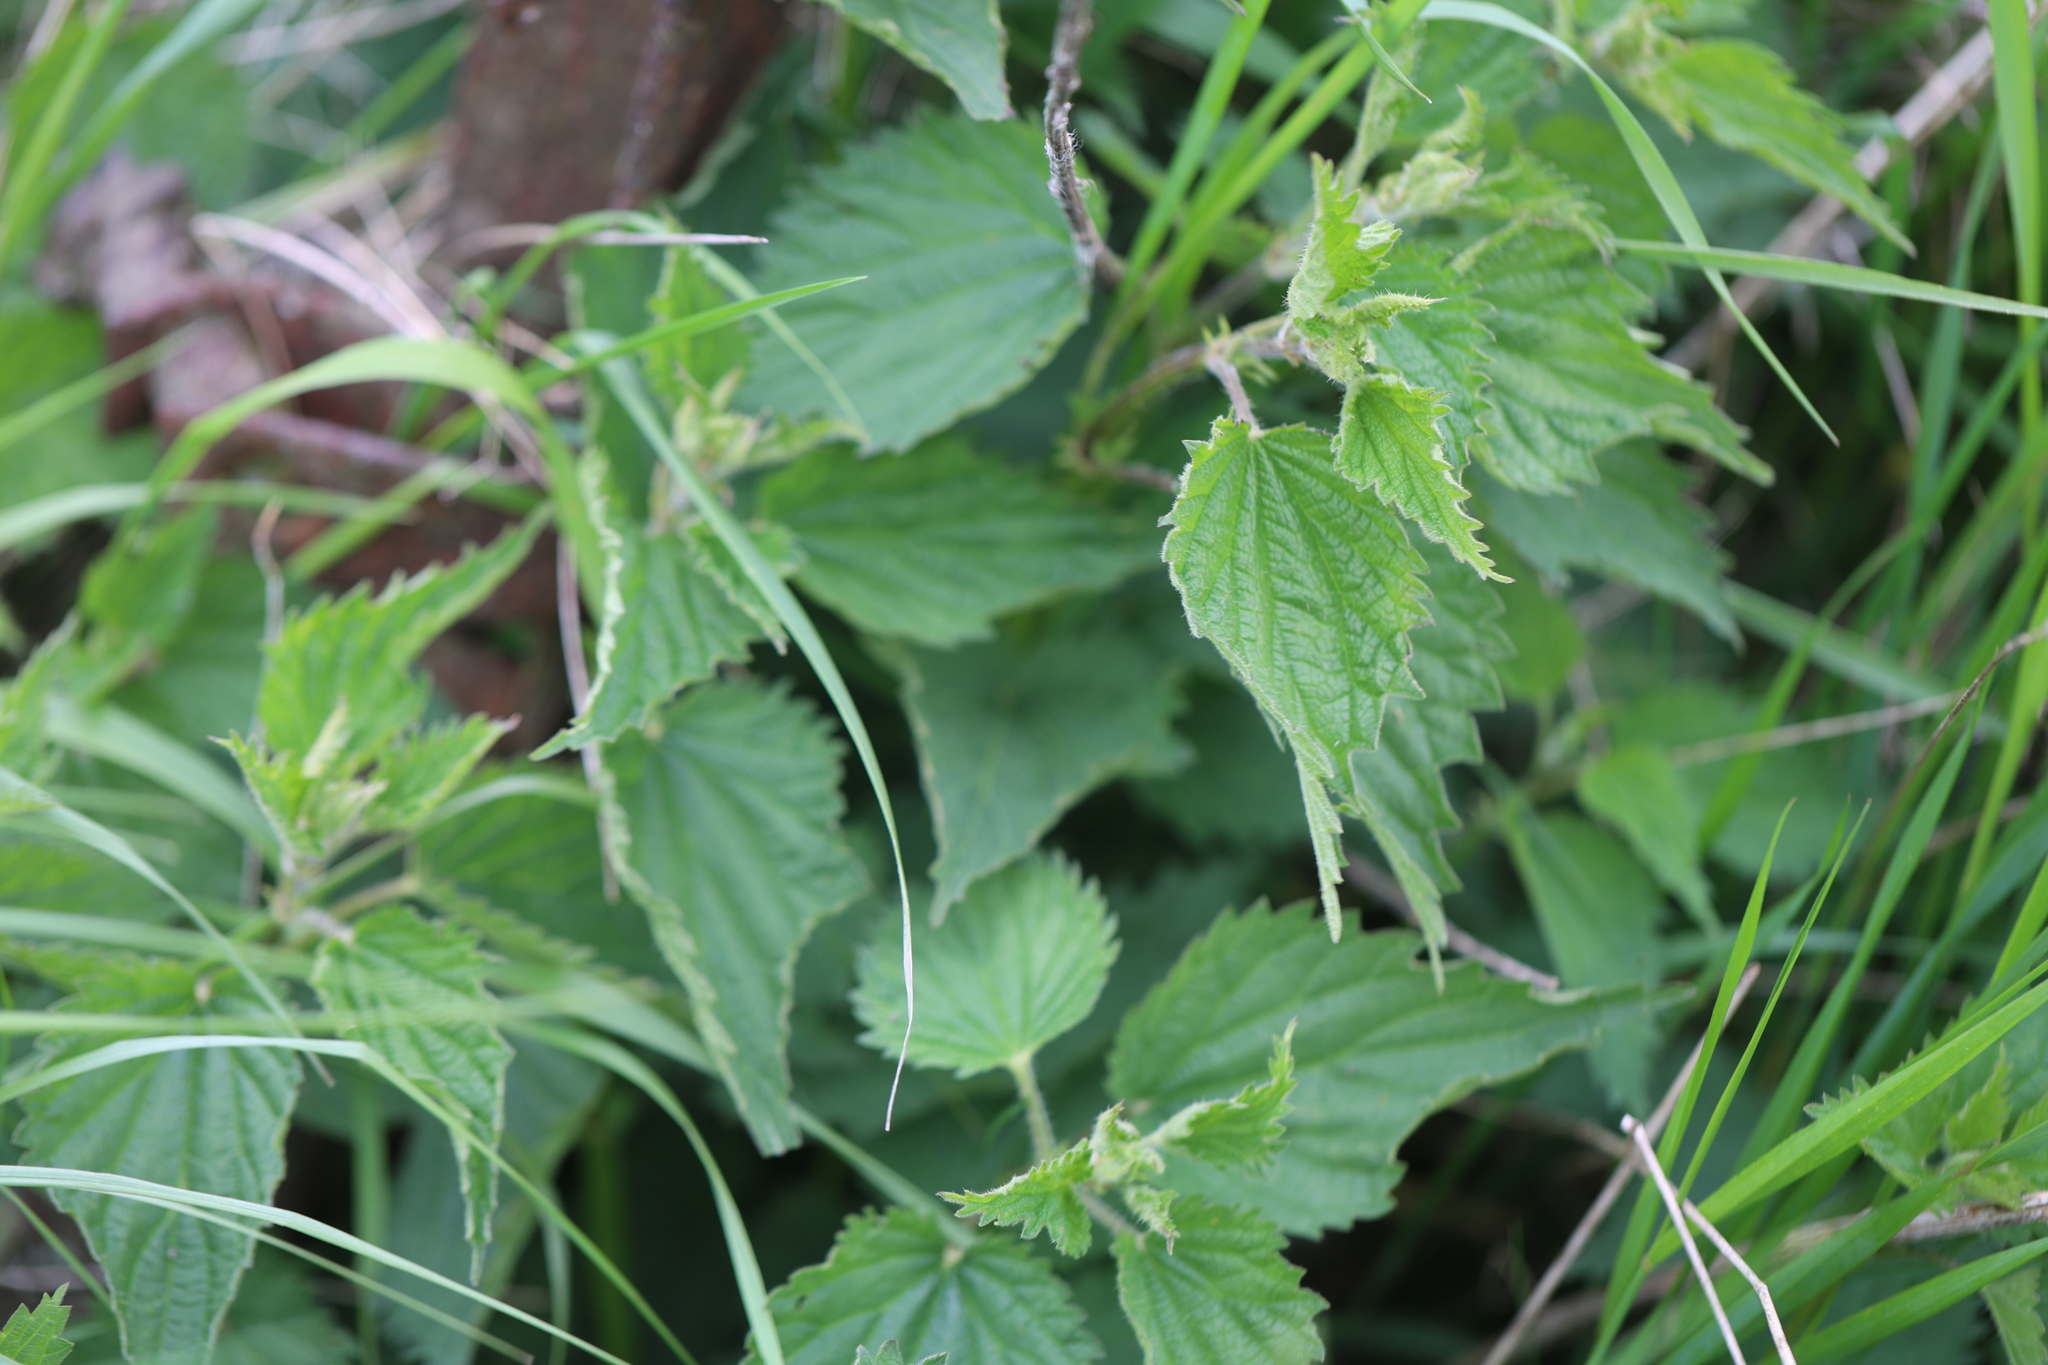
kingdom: Plantae
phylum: Tracheophyta
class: Magnoliopsida
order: Rosales
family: Urticaceae
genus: Urtica
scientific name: Urtica dioica
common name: Common nettle
